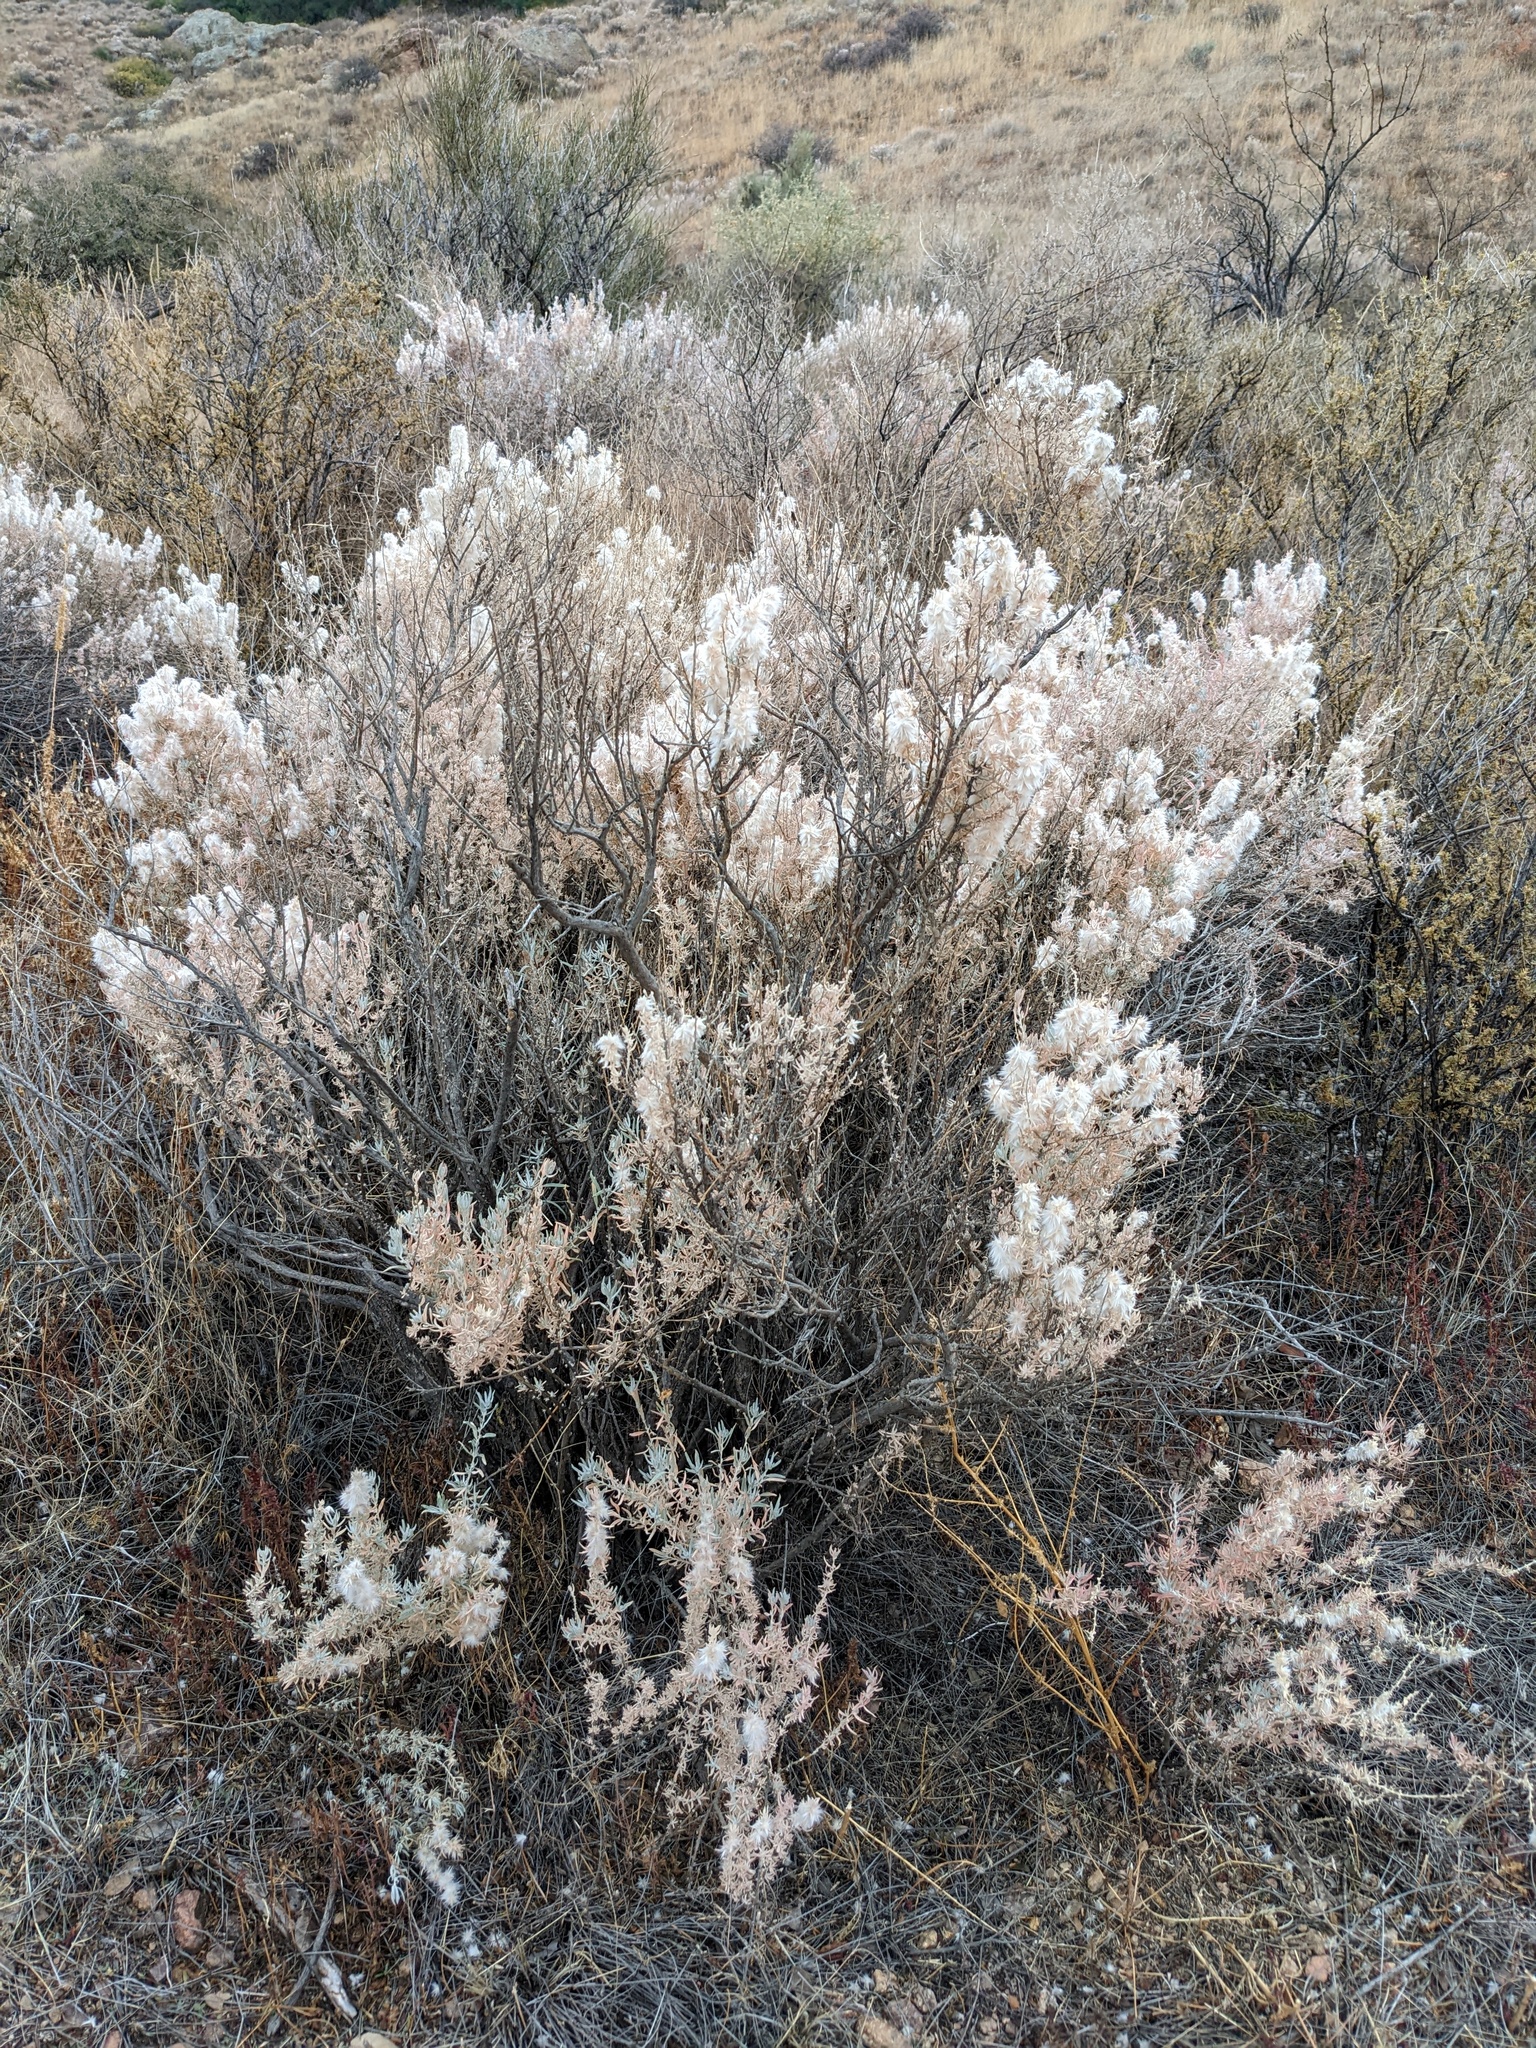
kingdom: Plantae
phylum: Tracheophyta
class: Magnoliopsida
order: Caryophyllales
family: Amaranthaceae
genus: Krascheninnikovia
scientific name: Krascheninnikovia lanata
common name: Winterfat
